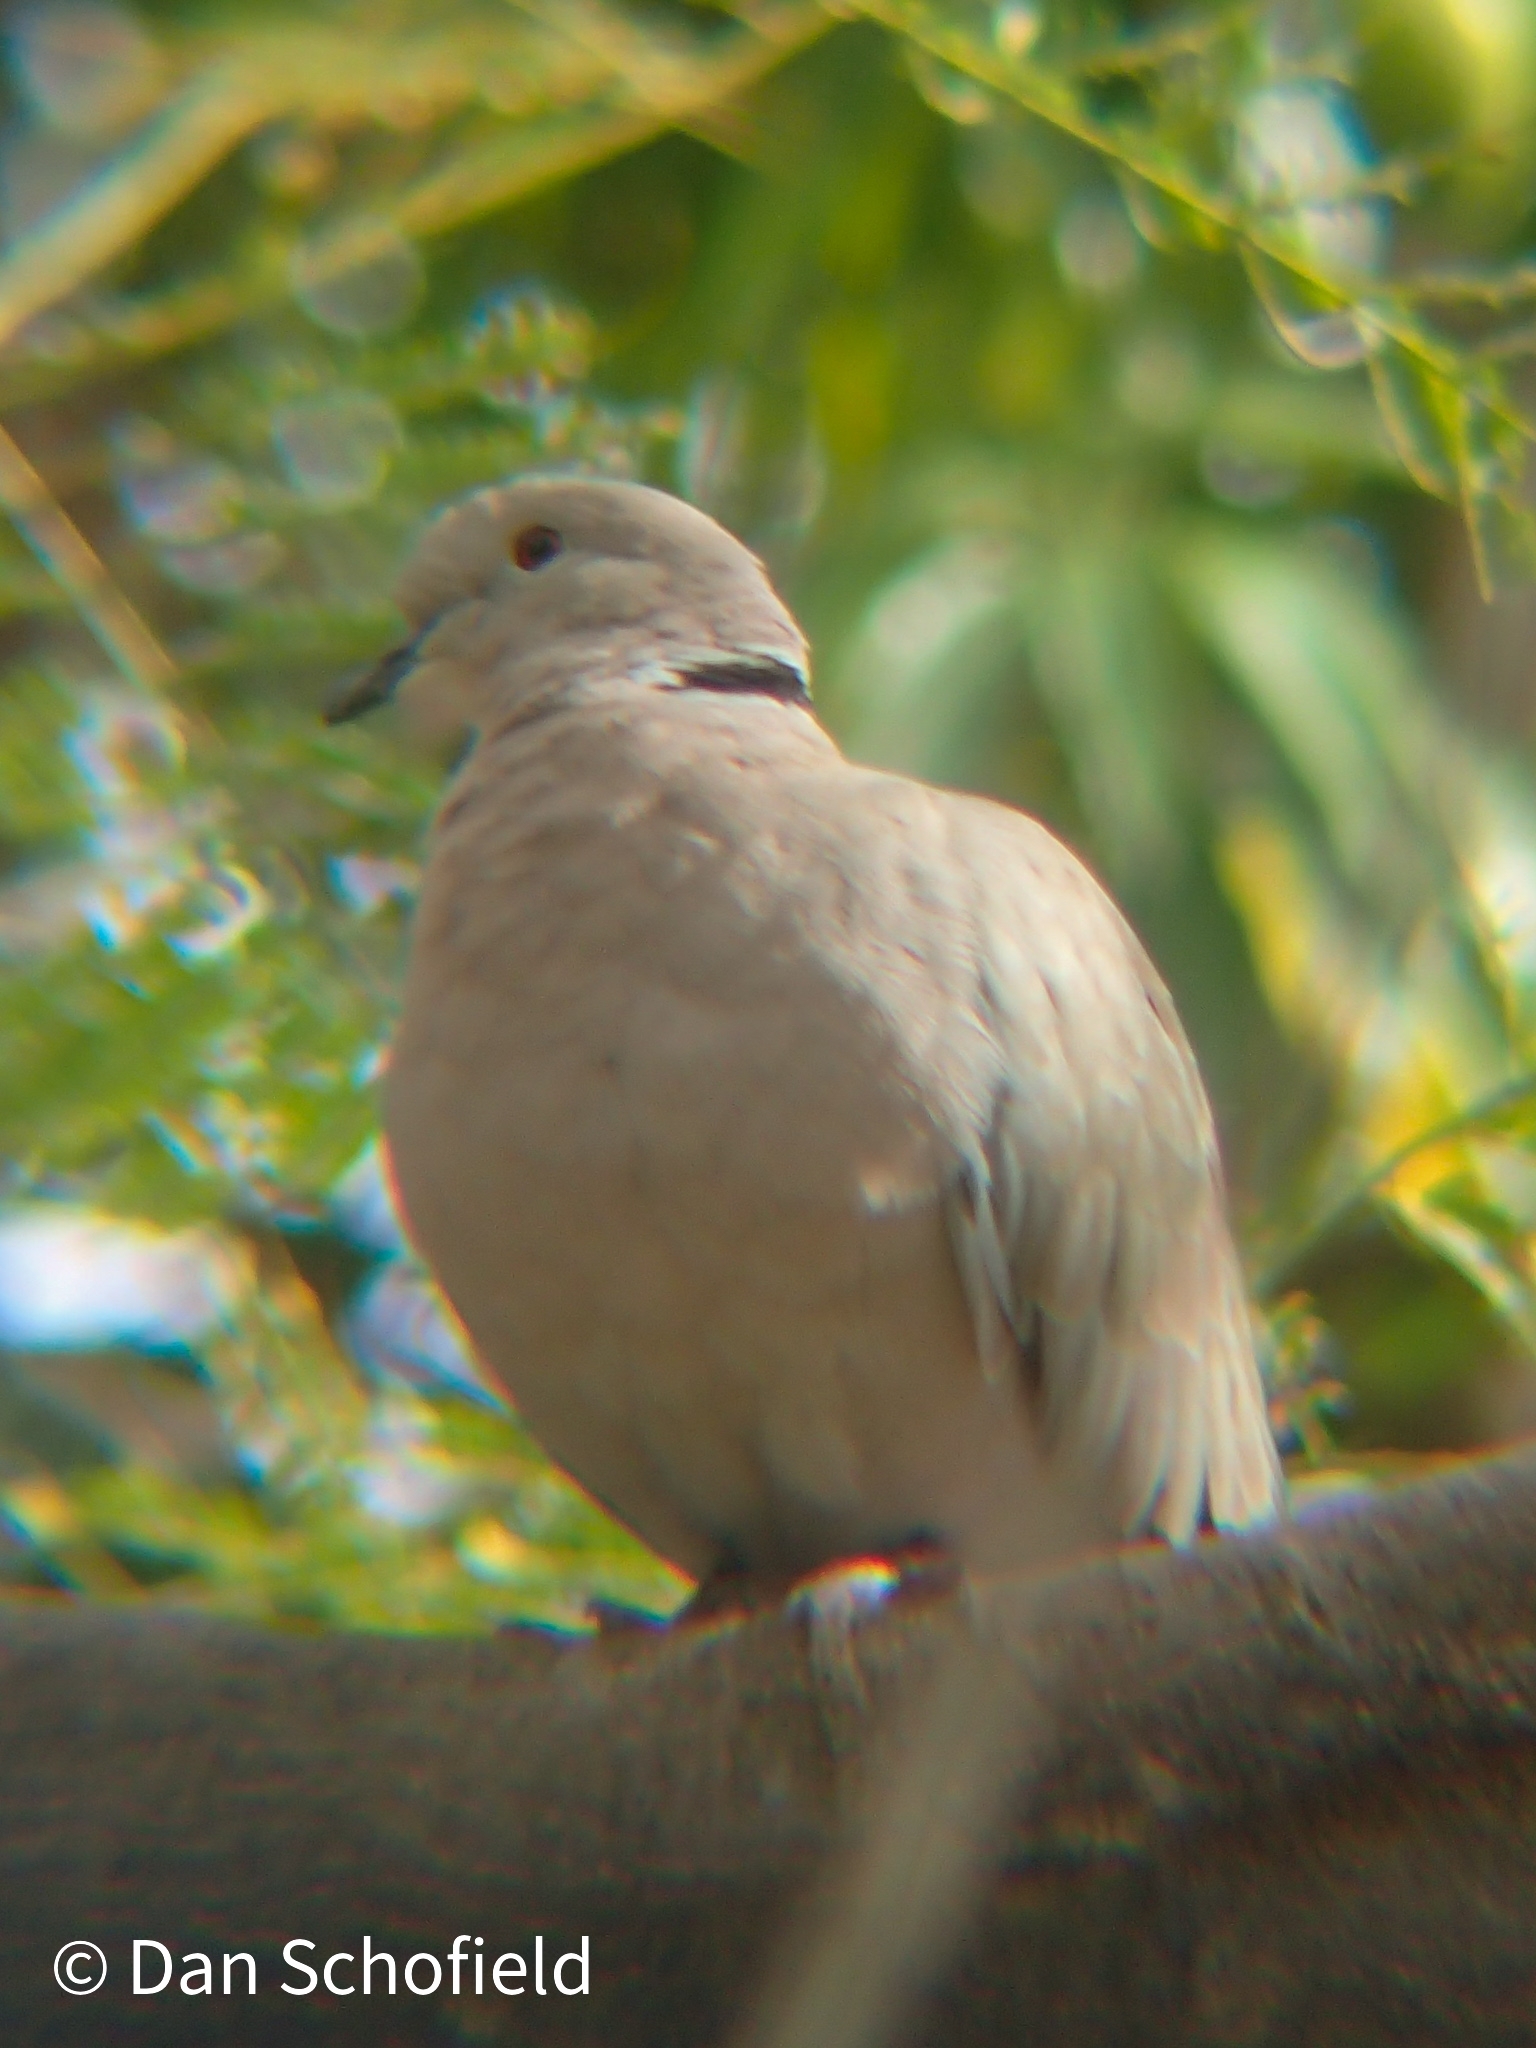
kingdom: Animalia
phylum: Chordata
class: Aves
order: Columbiformes
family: Columbidae
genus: Streptopelia
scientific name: Streptopelia decaocto
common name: Eurasian collared dove
